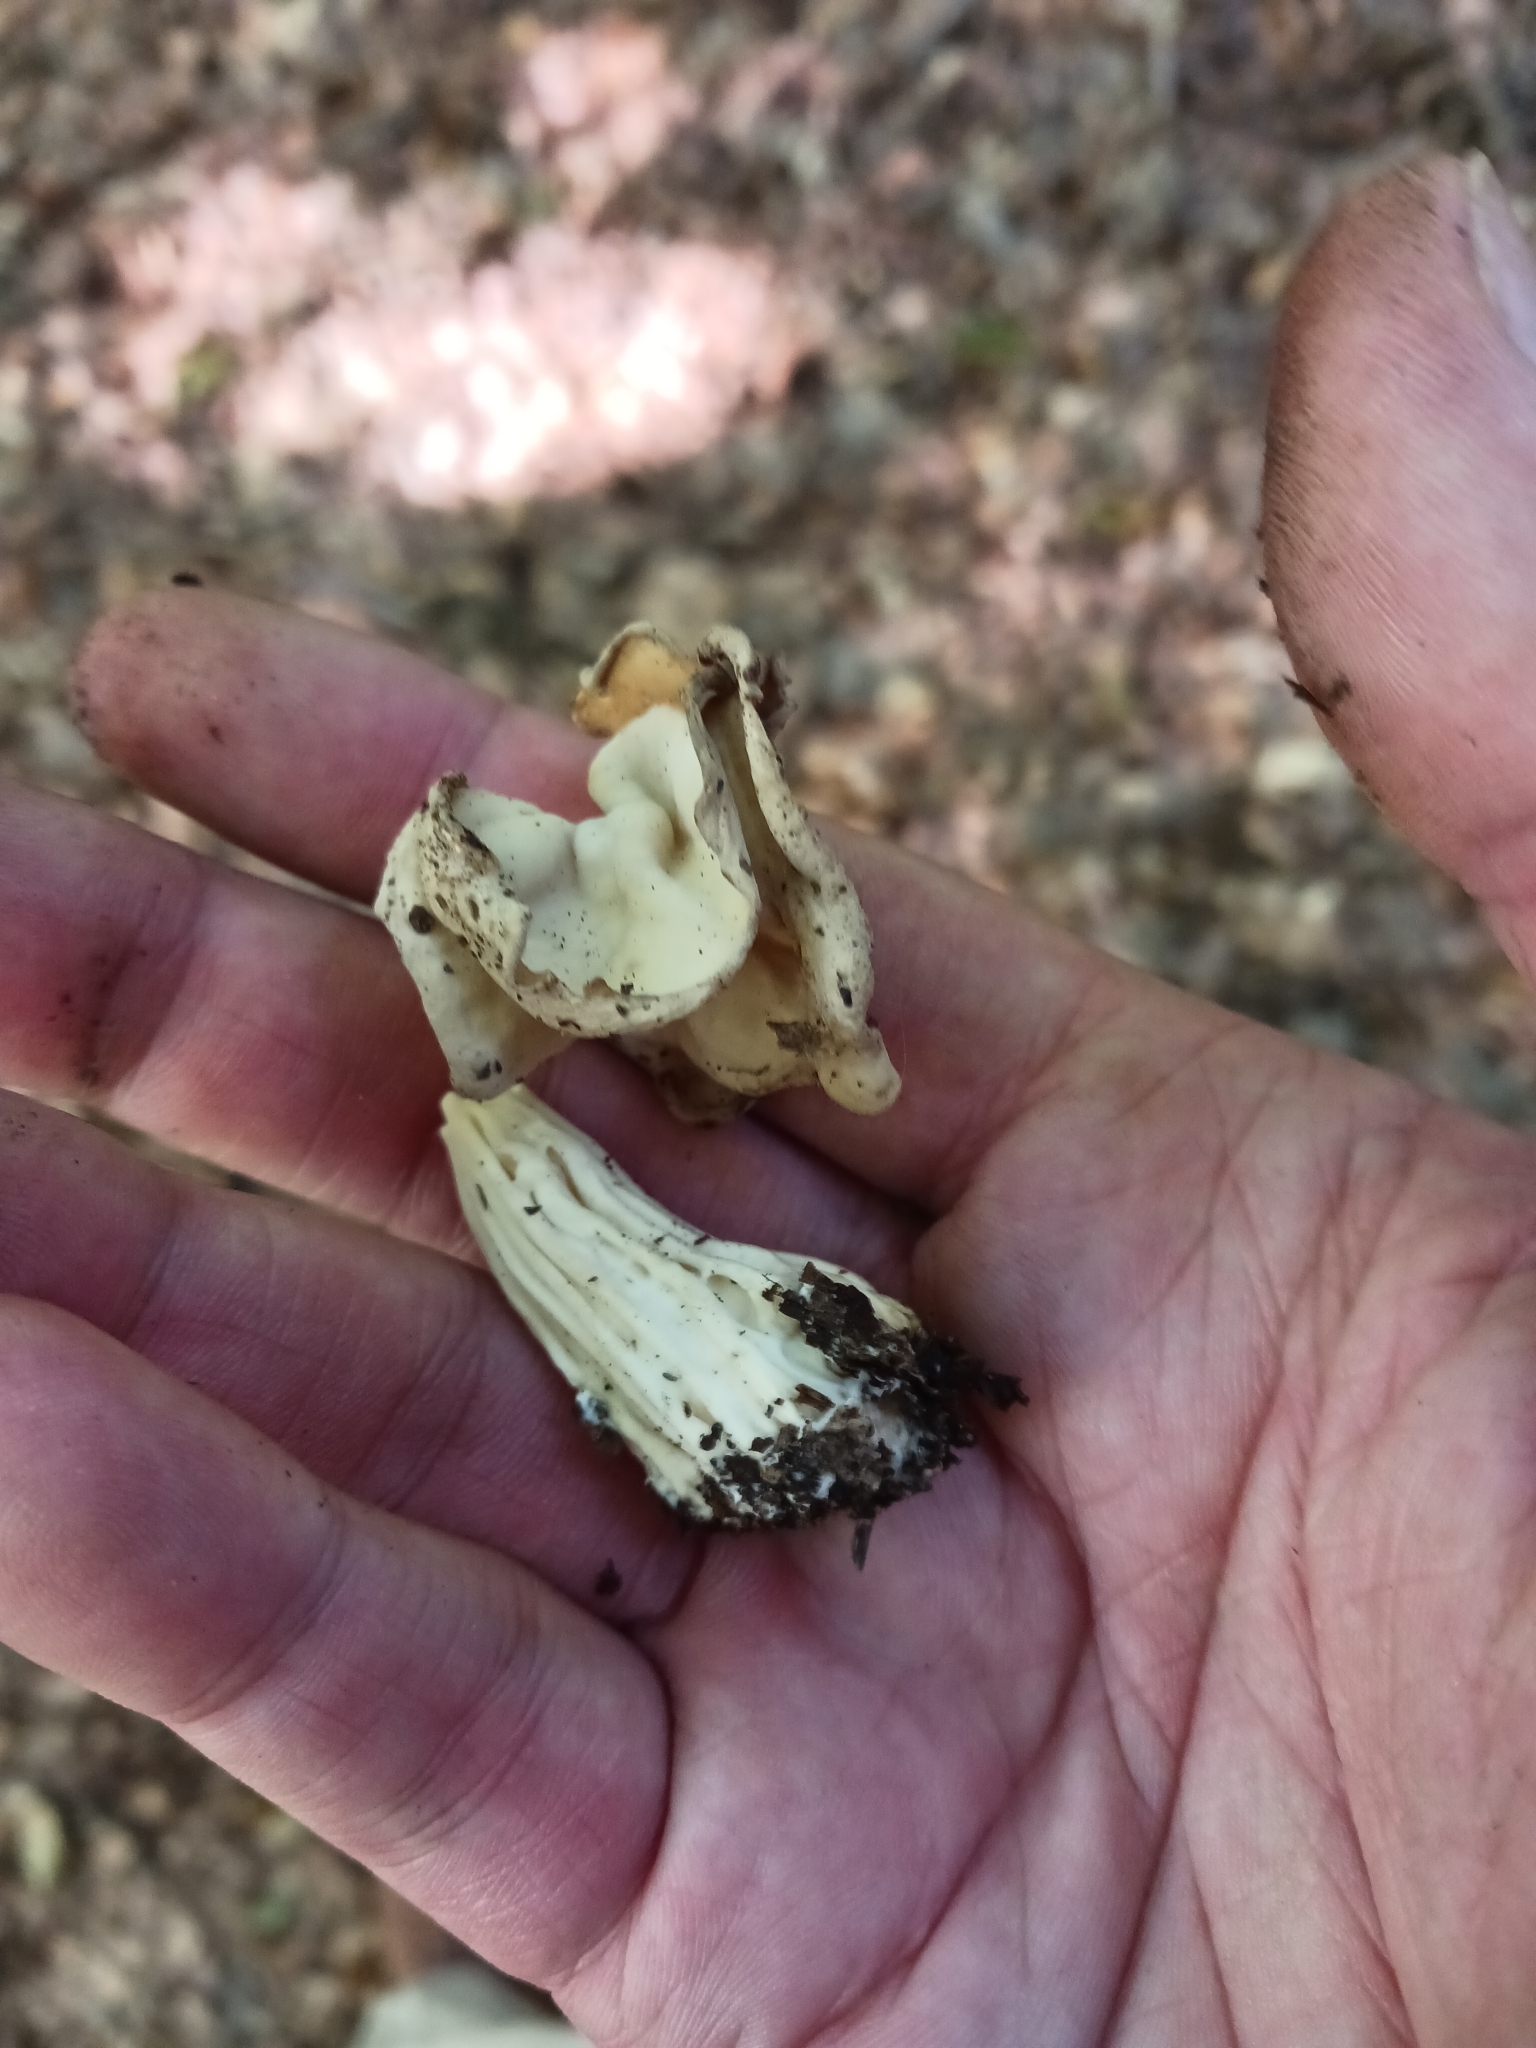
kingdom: Fungi
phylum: Ascomycota
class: Pezizomycetes
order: Pezizales
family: Helvellaceae
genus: Helvella
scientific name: Helvella crispa
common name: White saddle
